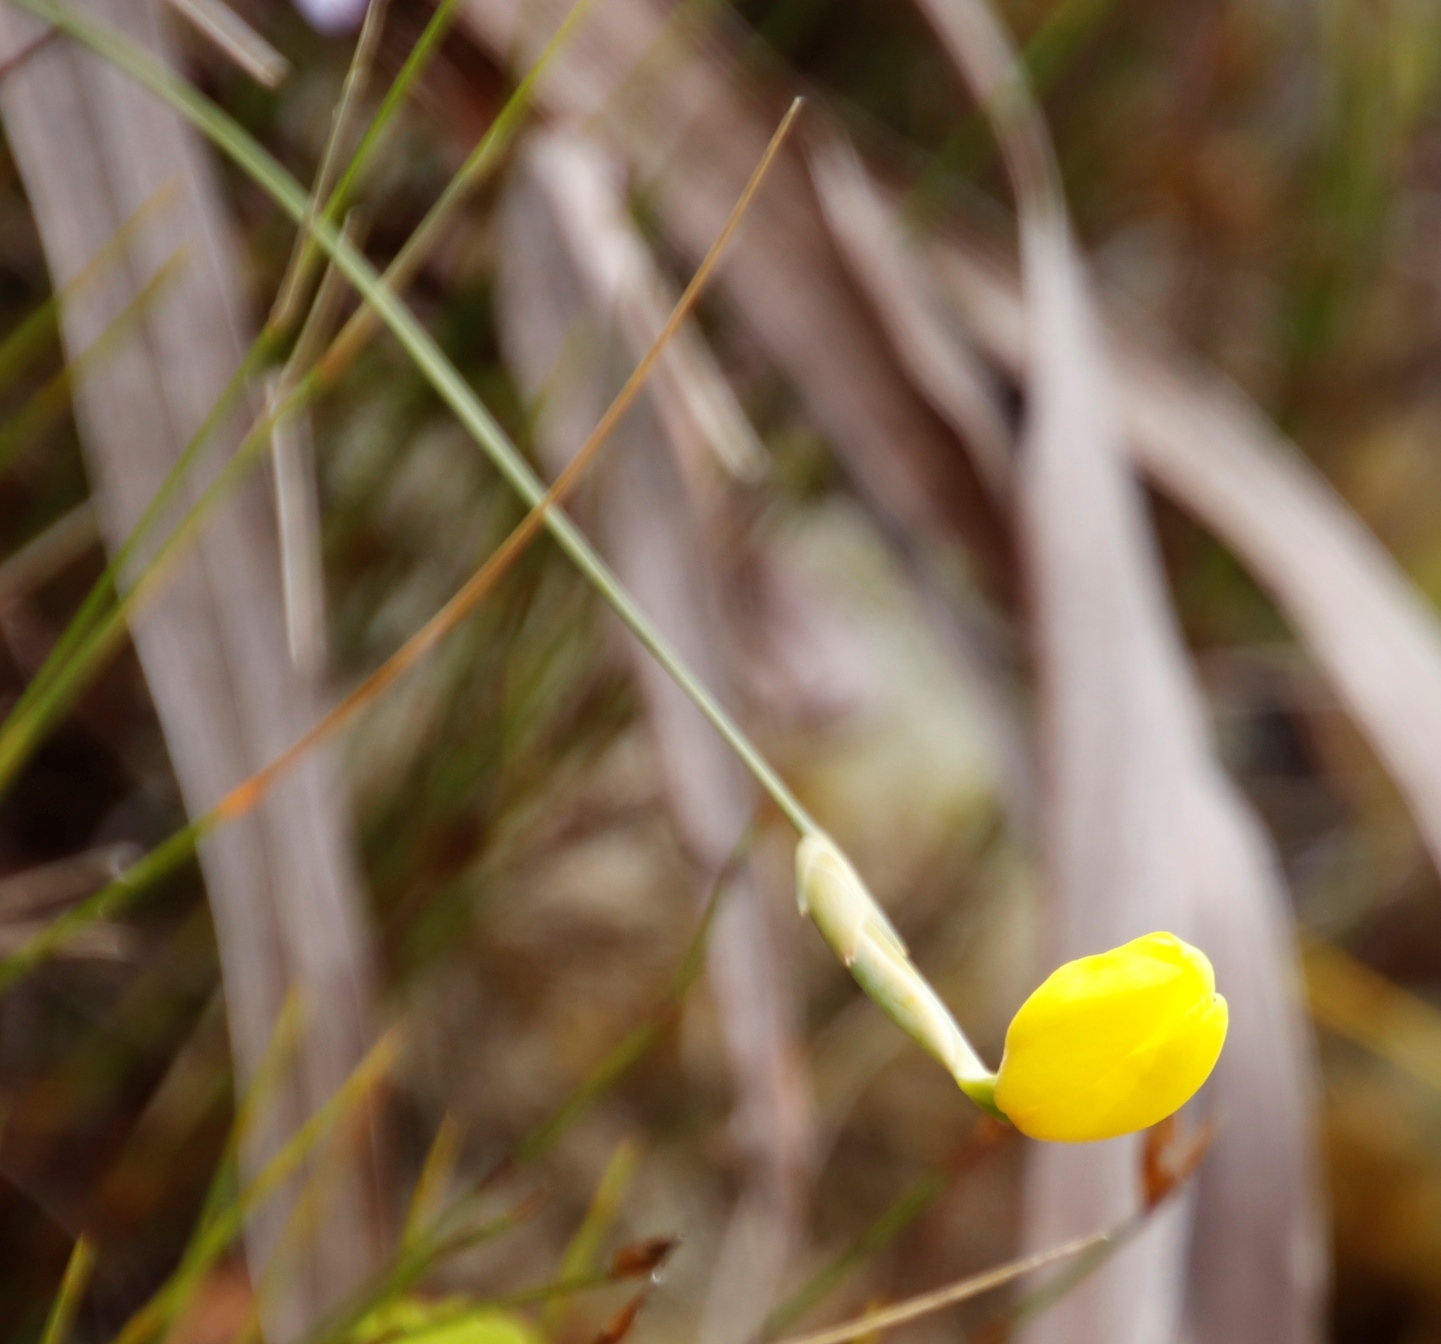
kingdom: Plantae
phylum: Tracheophyta
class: Liliopsida
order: Asparagales
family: Iridaceae
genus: Bobartia
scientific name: Bobartia filiformis
